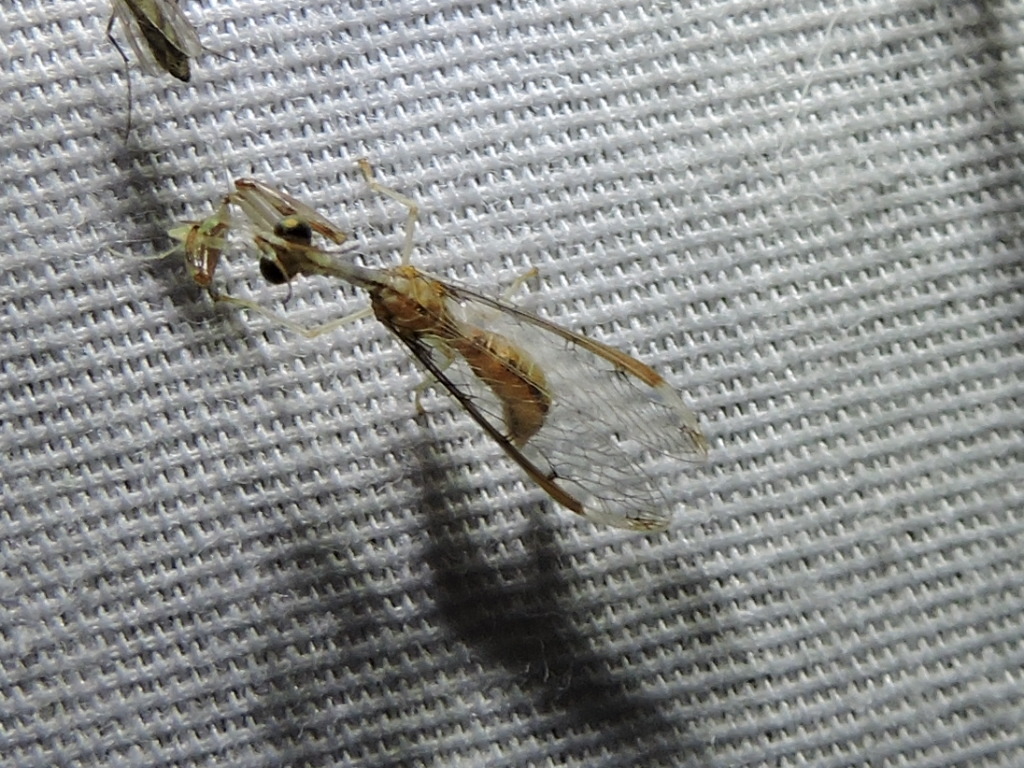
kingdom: Animalia
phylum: Arthropoda
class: Insecta
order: Neuroptera
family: Mantispidae
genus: Dicromantispa
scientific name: Dicromantispa interrupta
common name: Four-spotted mantidfly
